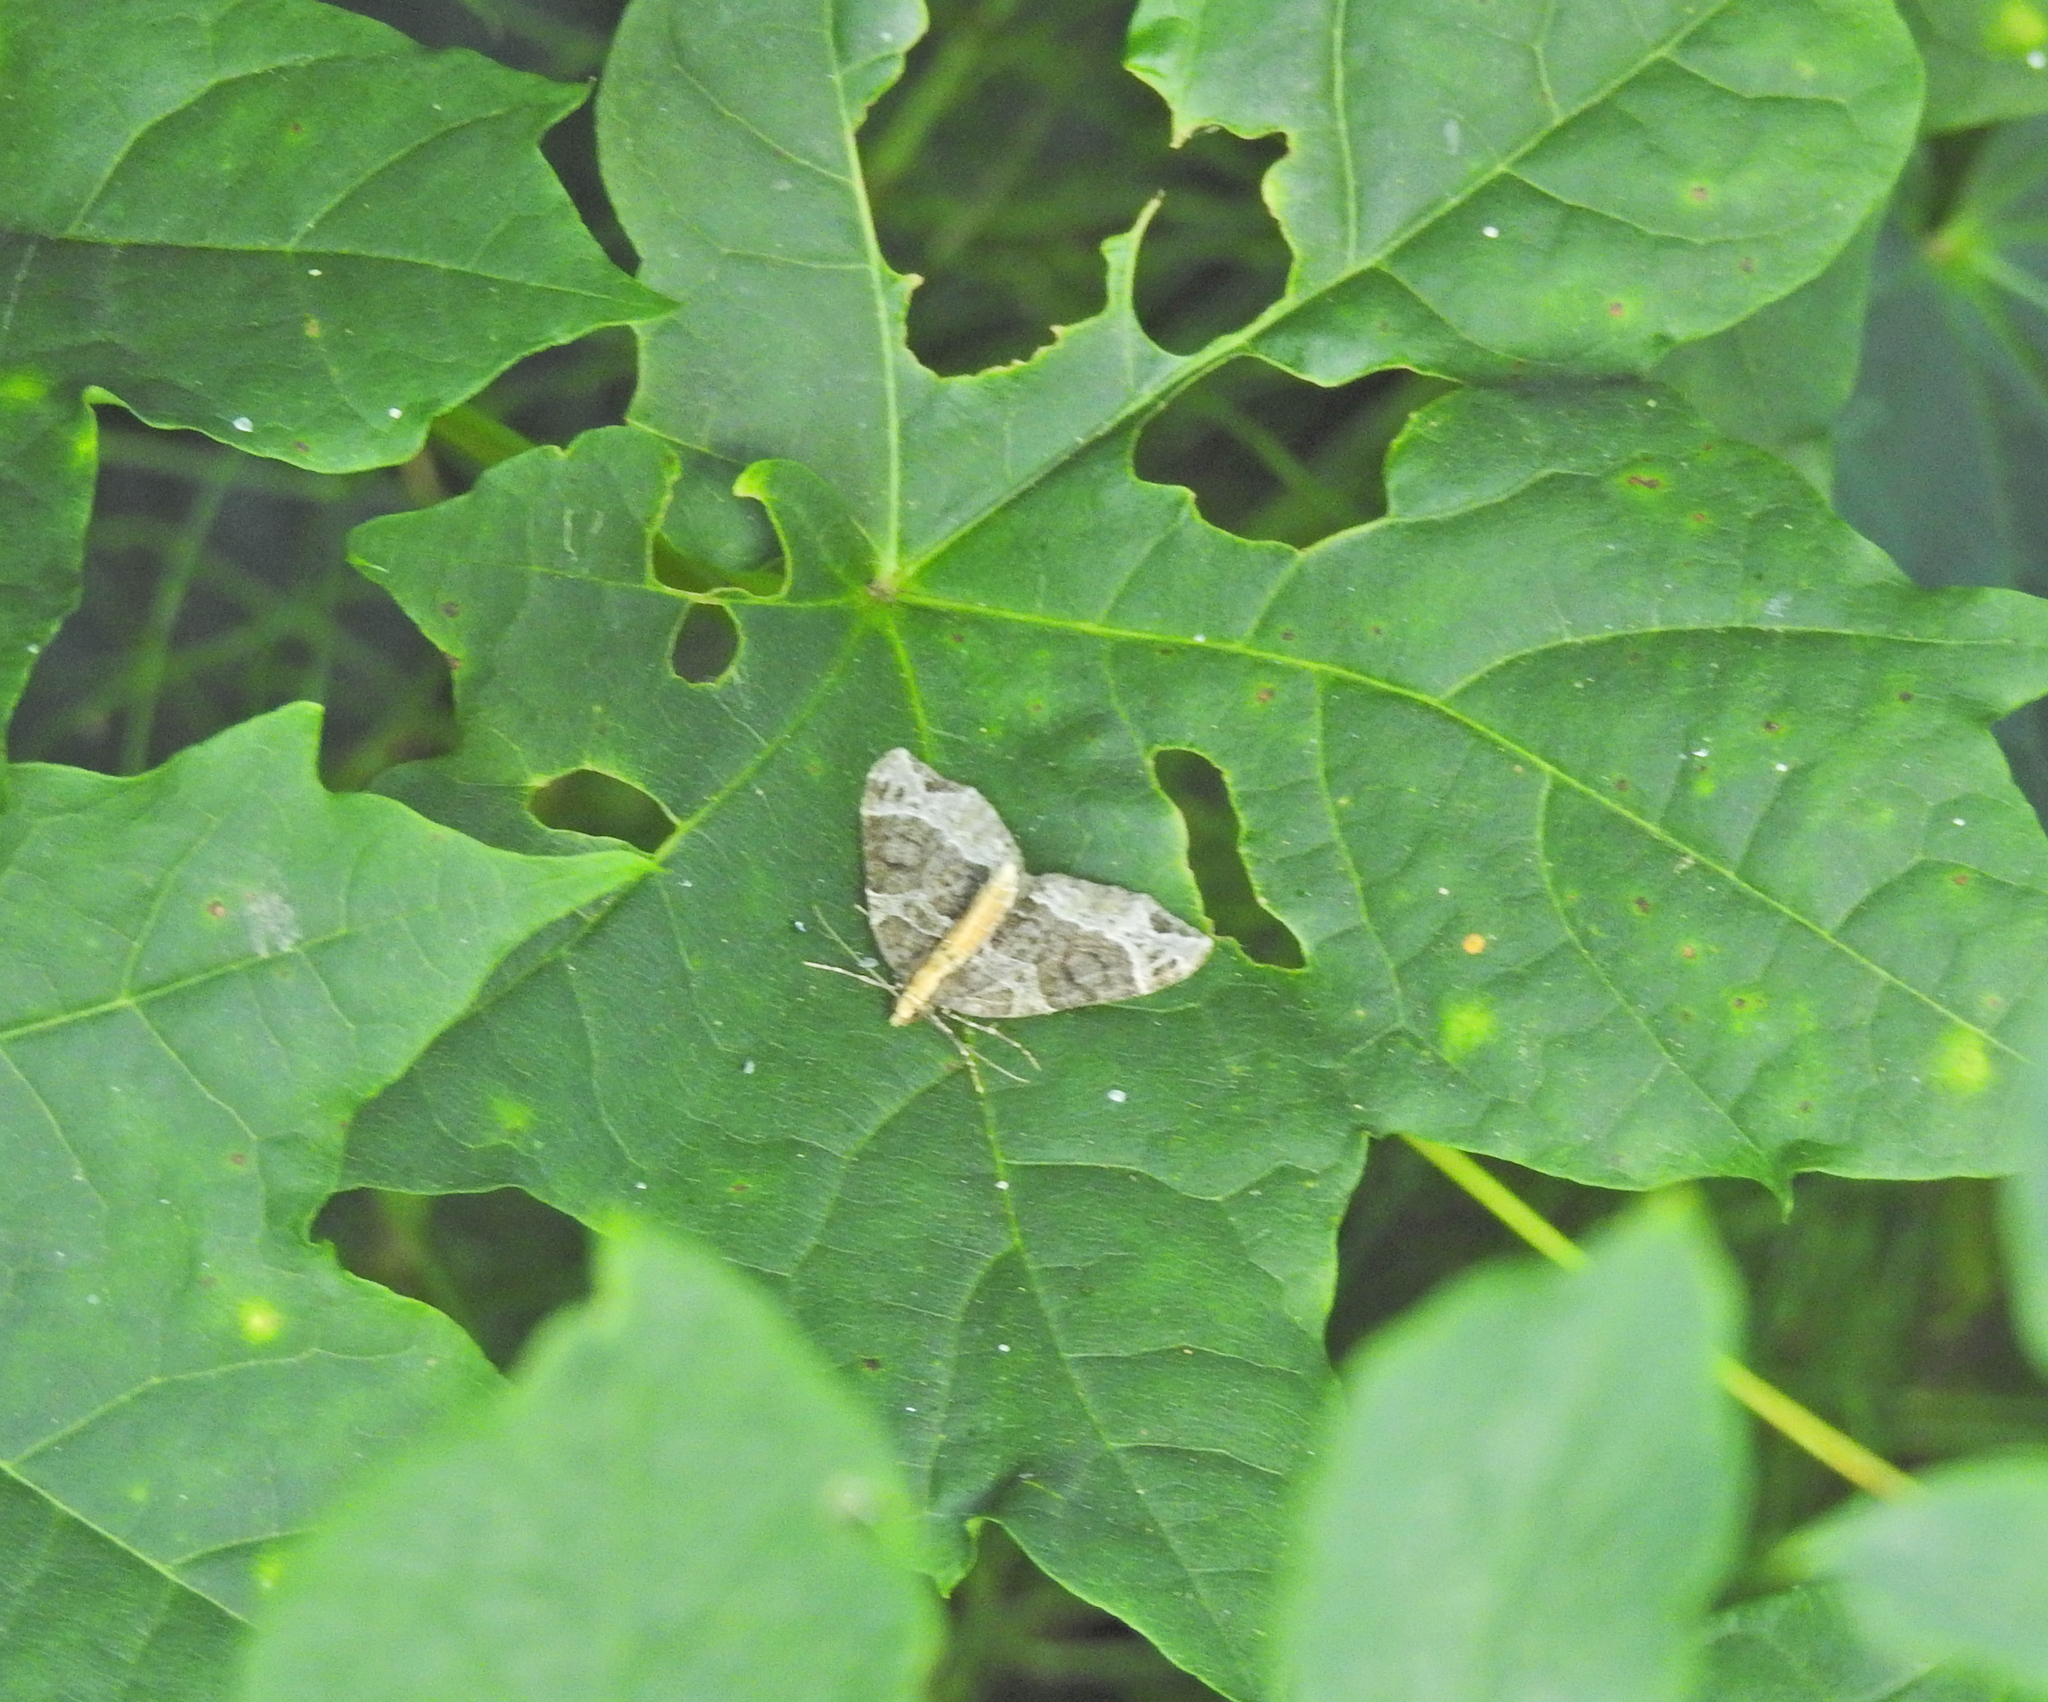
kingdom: Animalia
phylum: Arthropoda
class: Insecta
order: Lepidoptera
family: Geometridae
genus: Ecliptopera
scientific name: Ecliptopera capitata
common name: Yellow-headed phoenix
